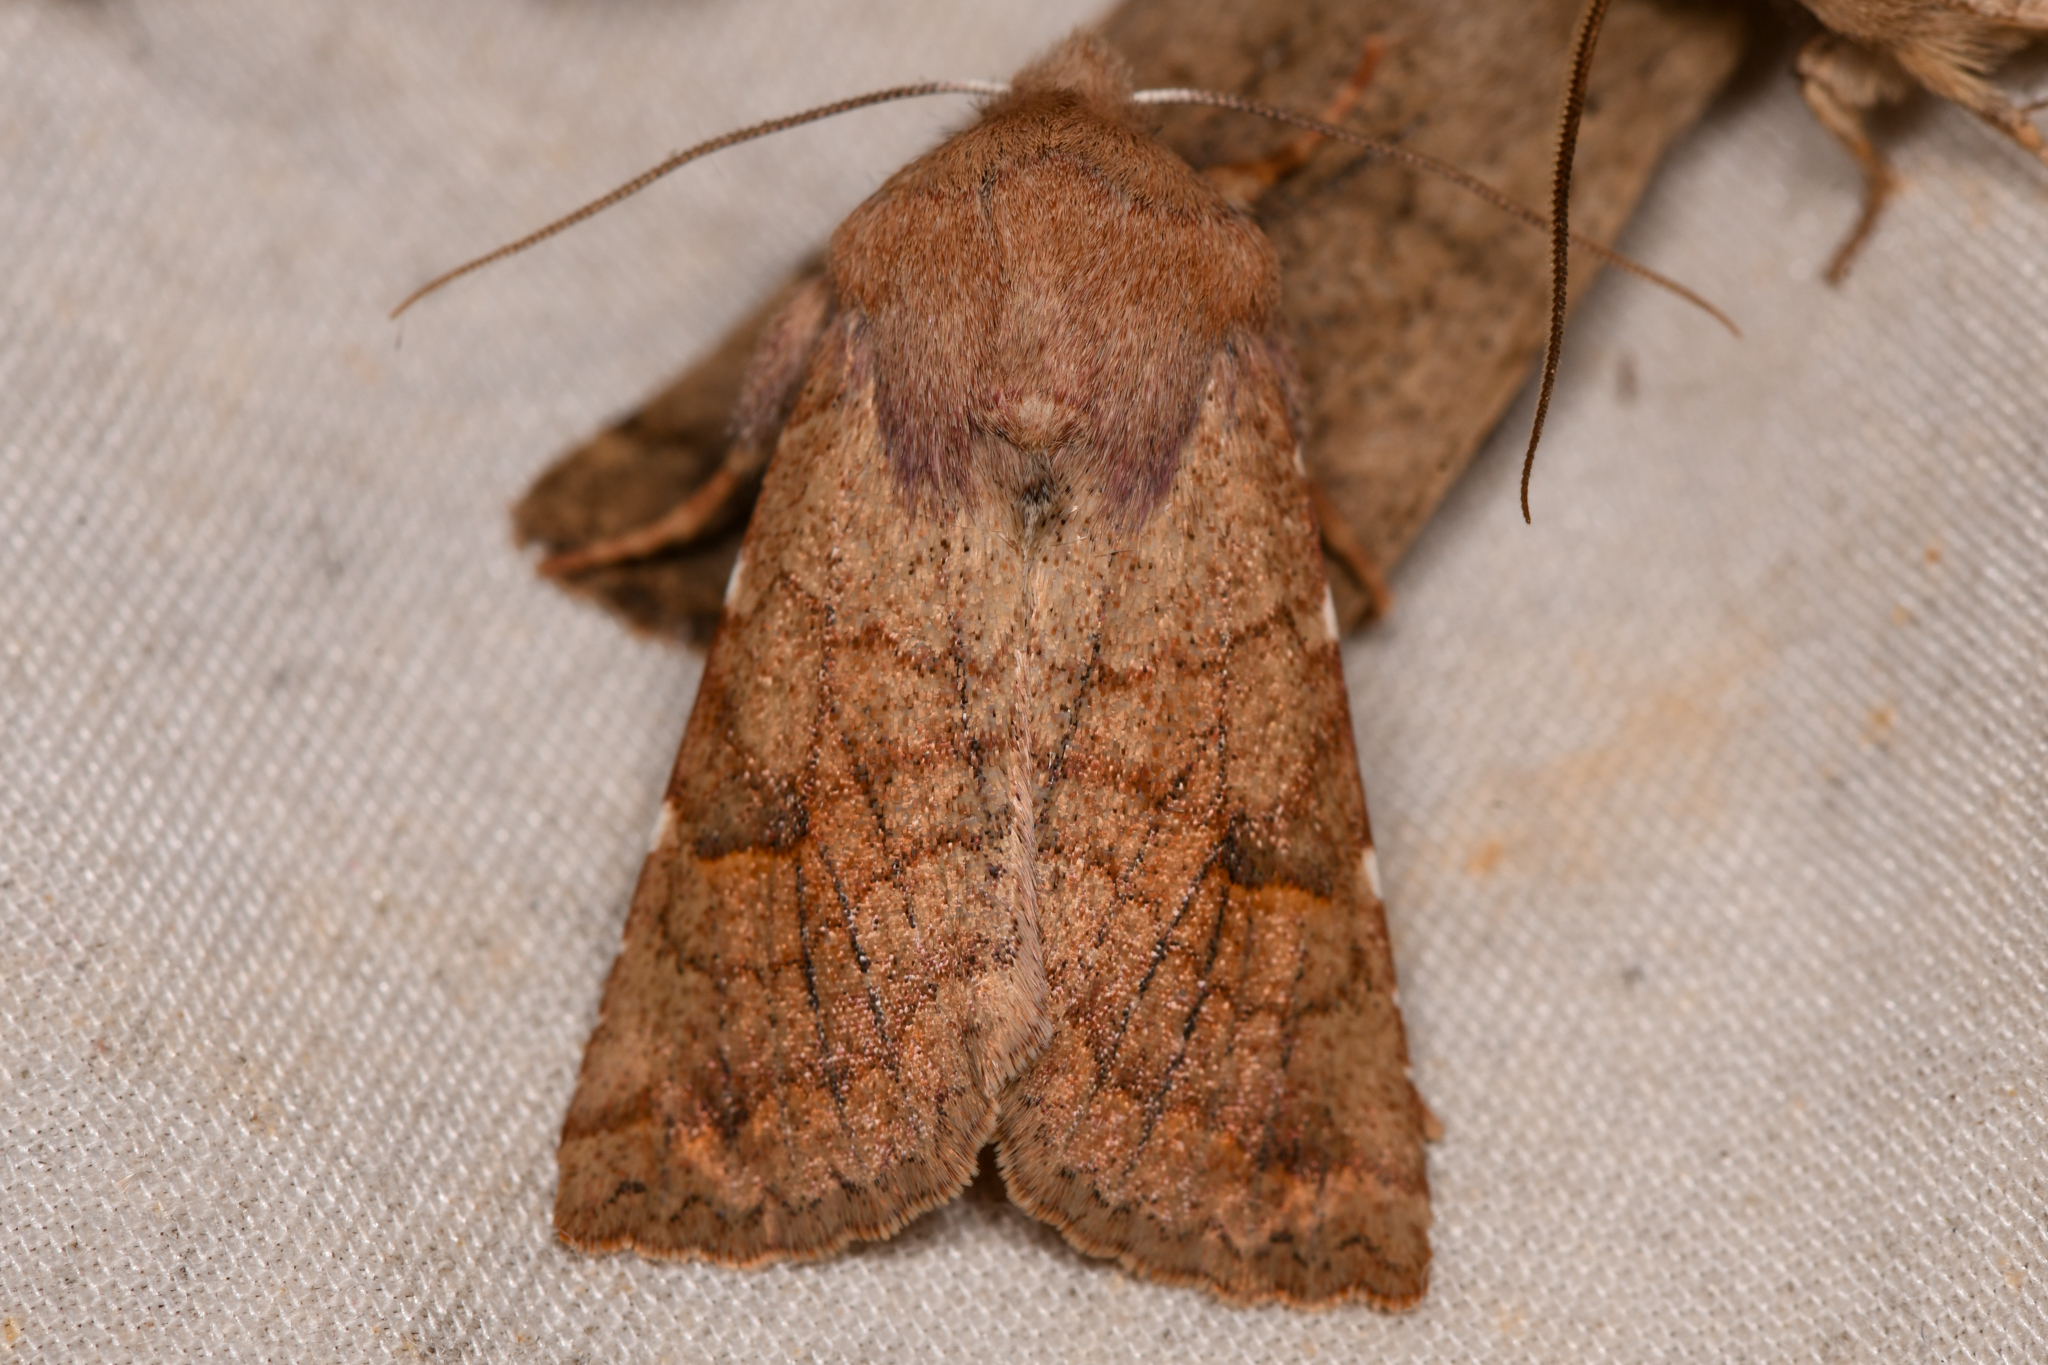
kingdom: Animalia
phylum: Arthropoda
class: Insecta
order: Lepidoptera
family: Noctuidae
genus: Orthosia
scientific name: Orthosia ferrigera
